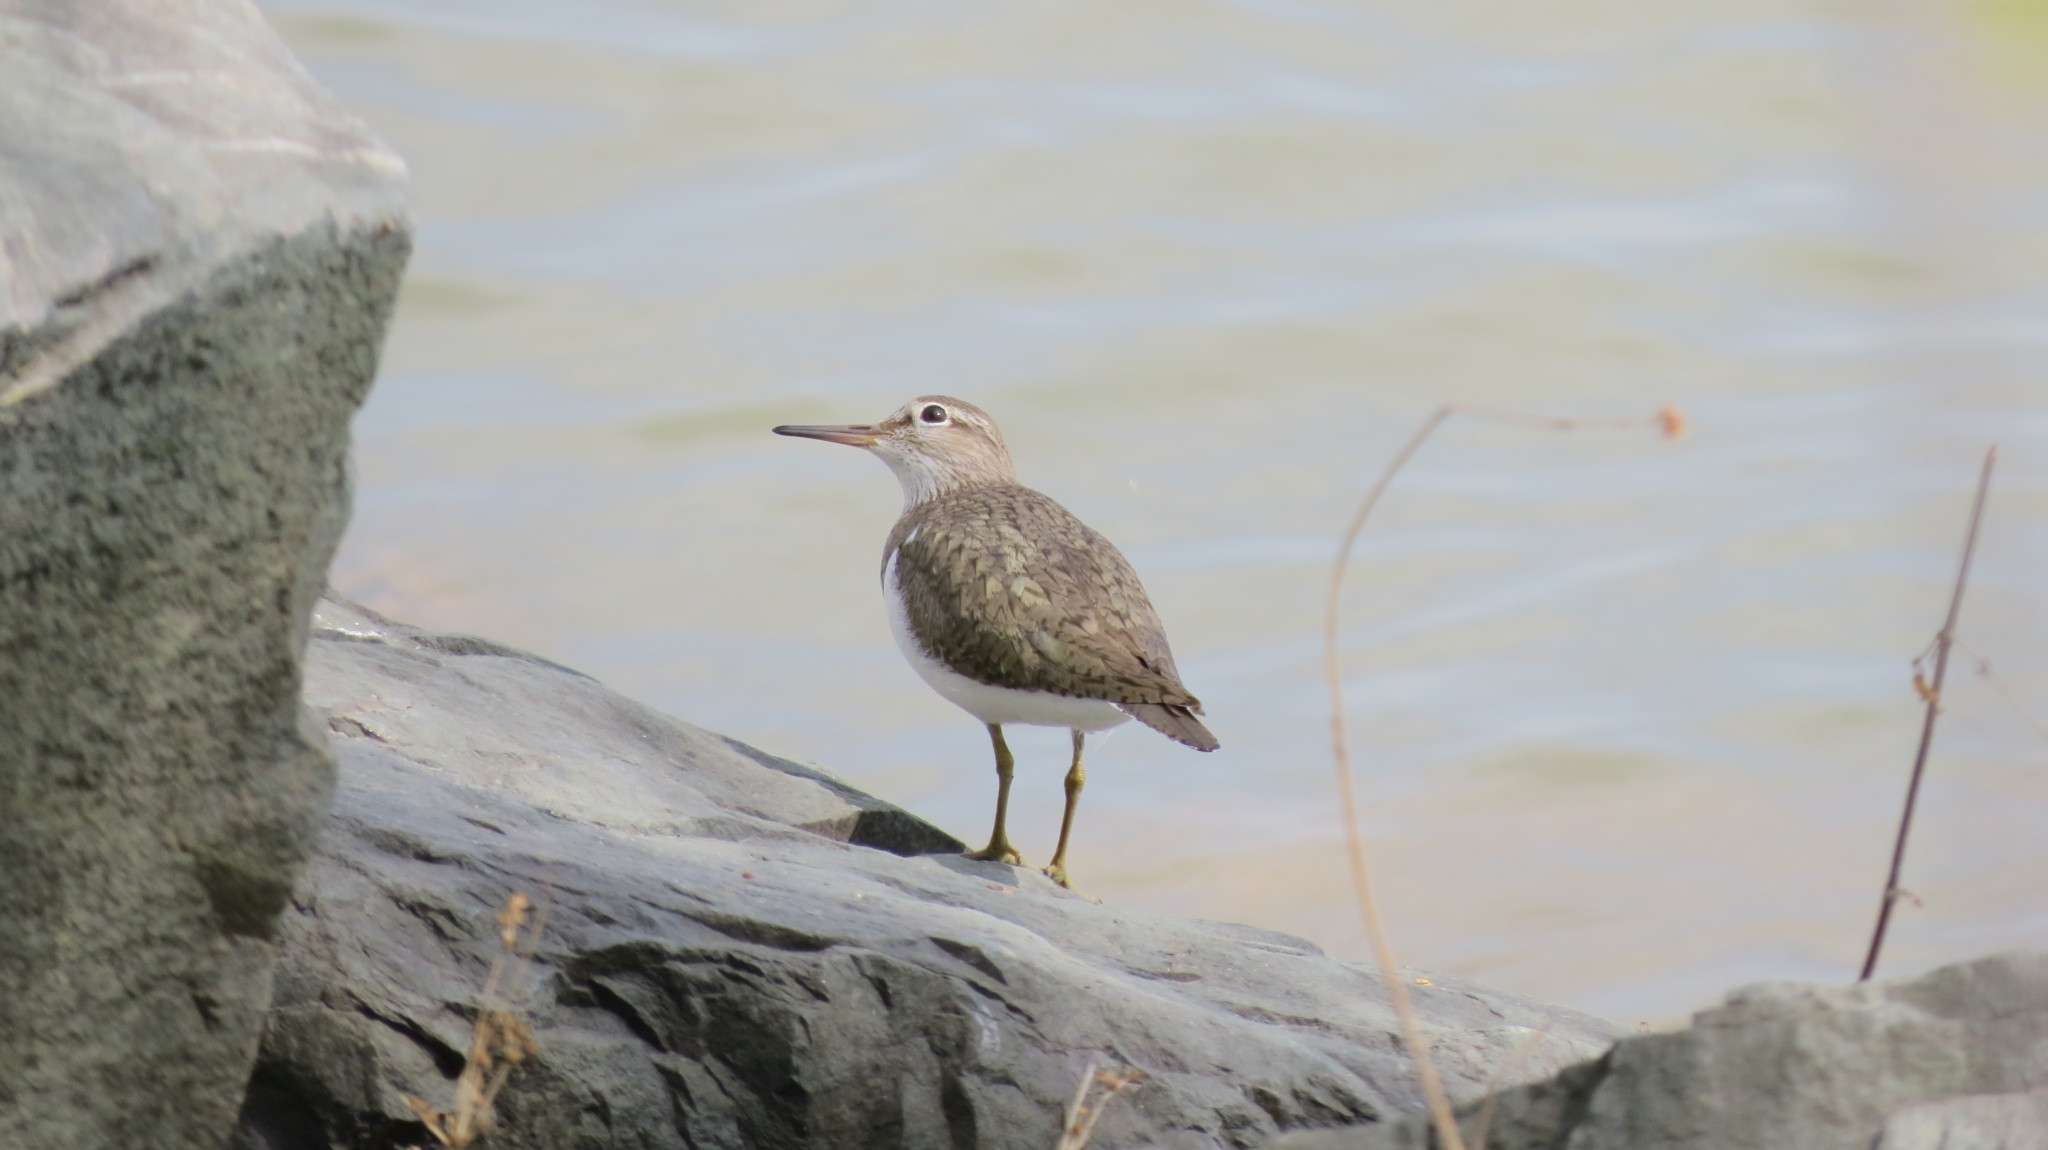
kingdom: Animalia
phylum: Chordata
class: Aves
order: Charadriiformes
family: Scolopacidae
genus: Actitis
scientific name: Actitis hypoleucos
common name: Common sandpiper
